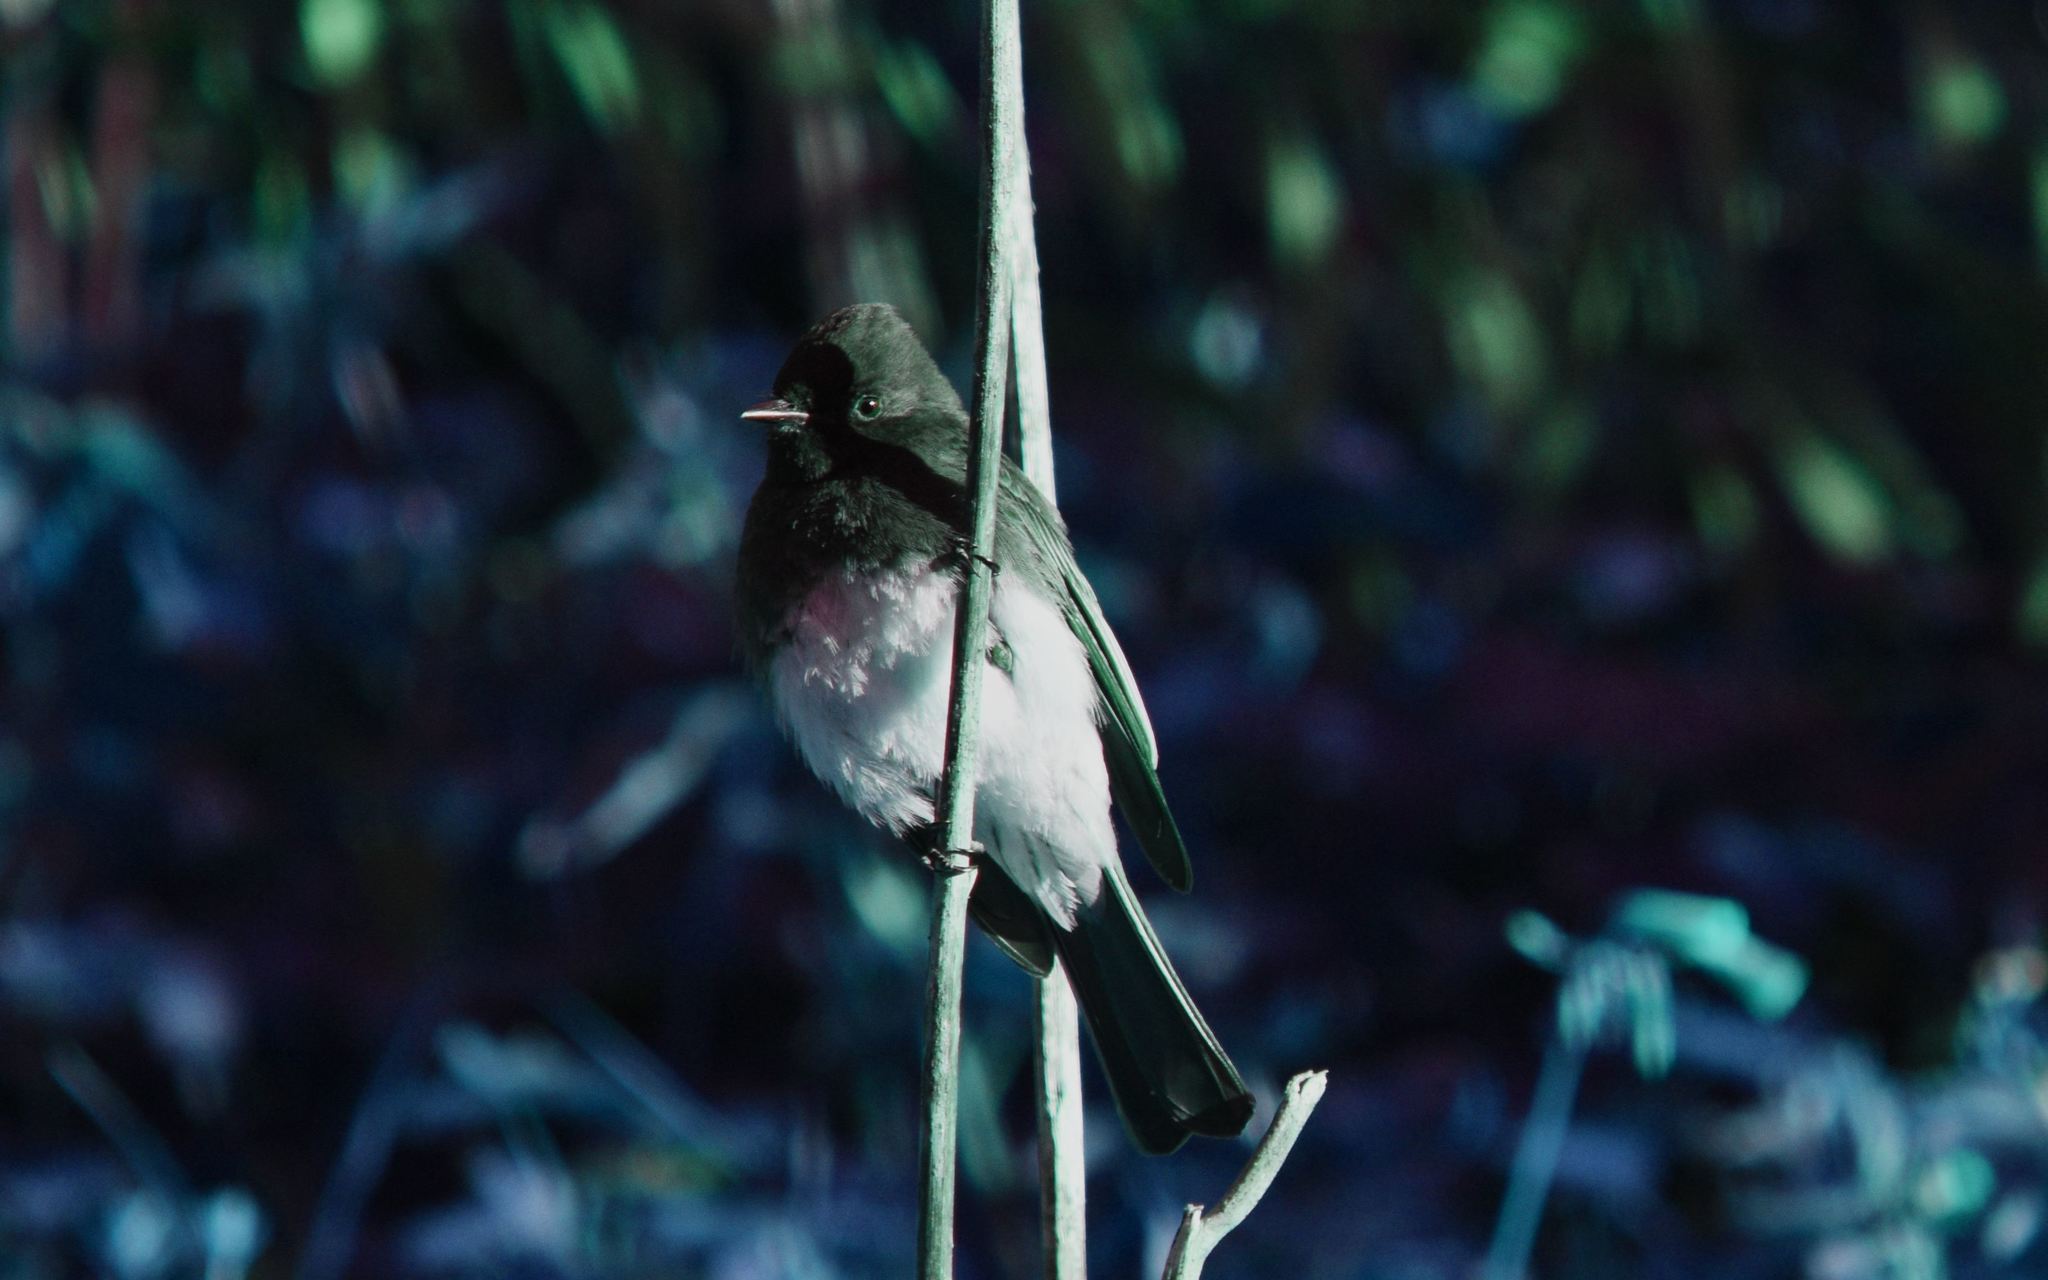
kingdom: Animalia
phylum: Chordata
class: Aves
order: Passeriformes
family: Tyrannidae
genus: Sayornis
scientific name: Sayornis nigricans
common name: Black phoebe
